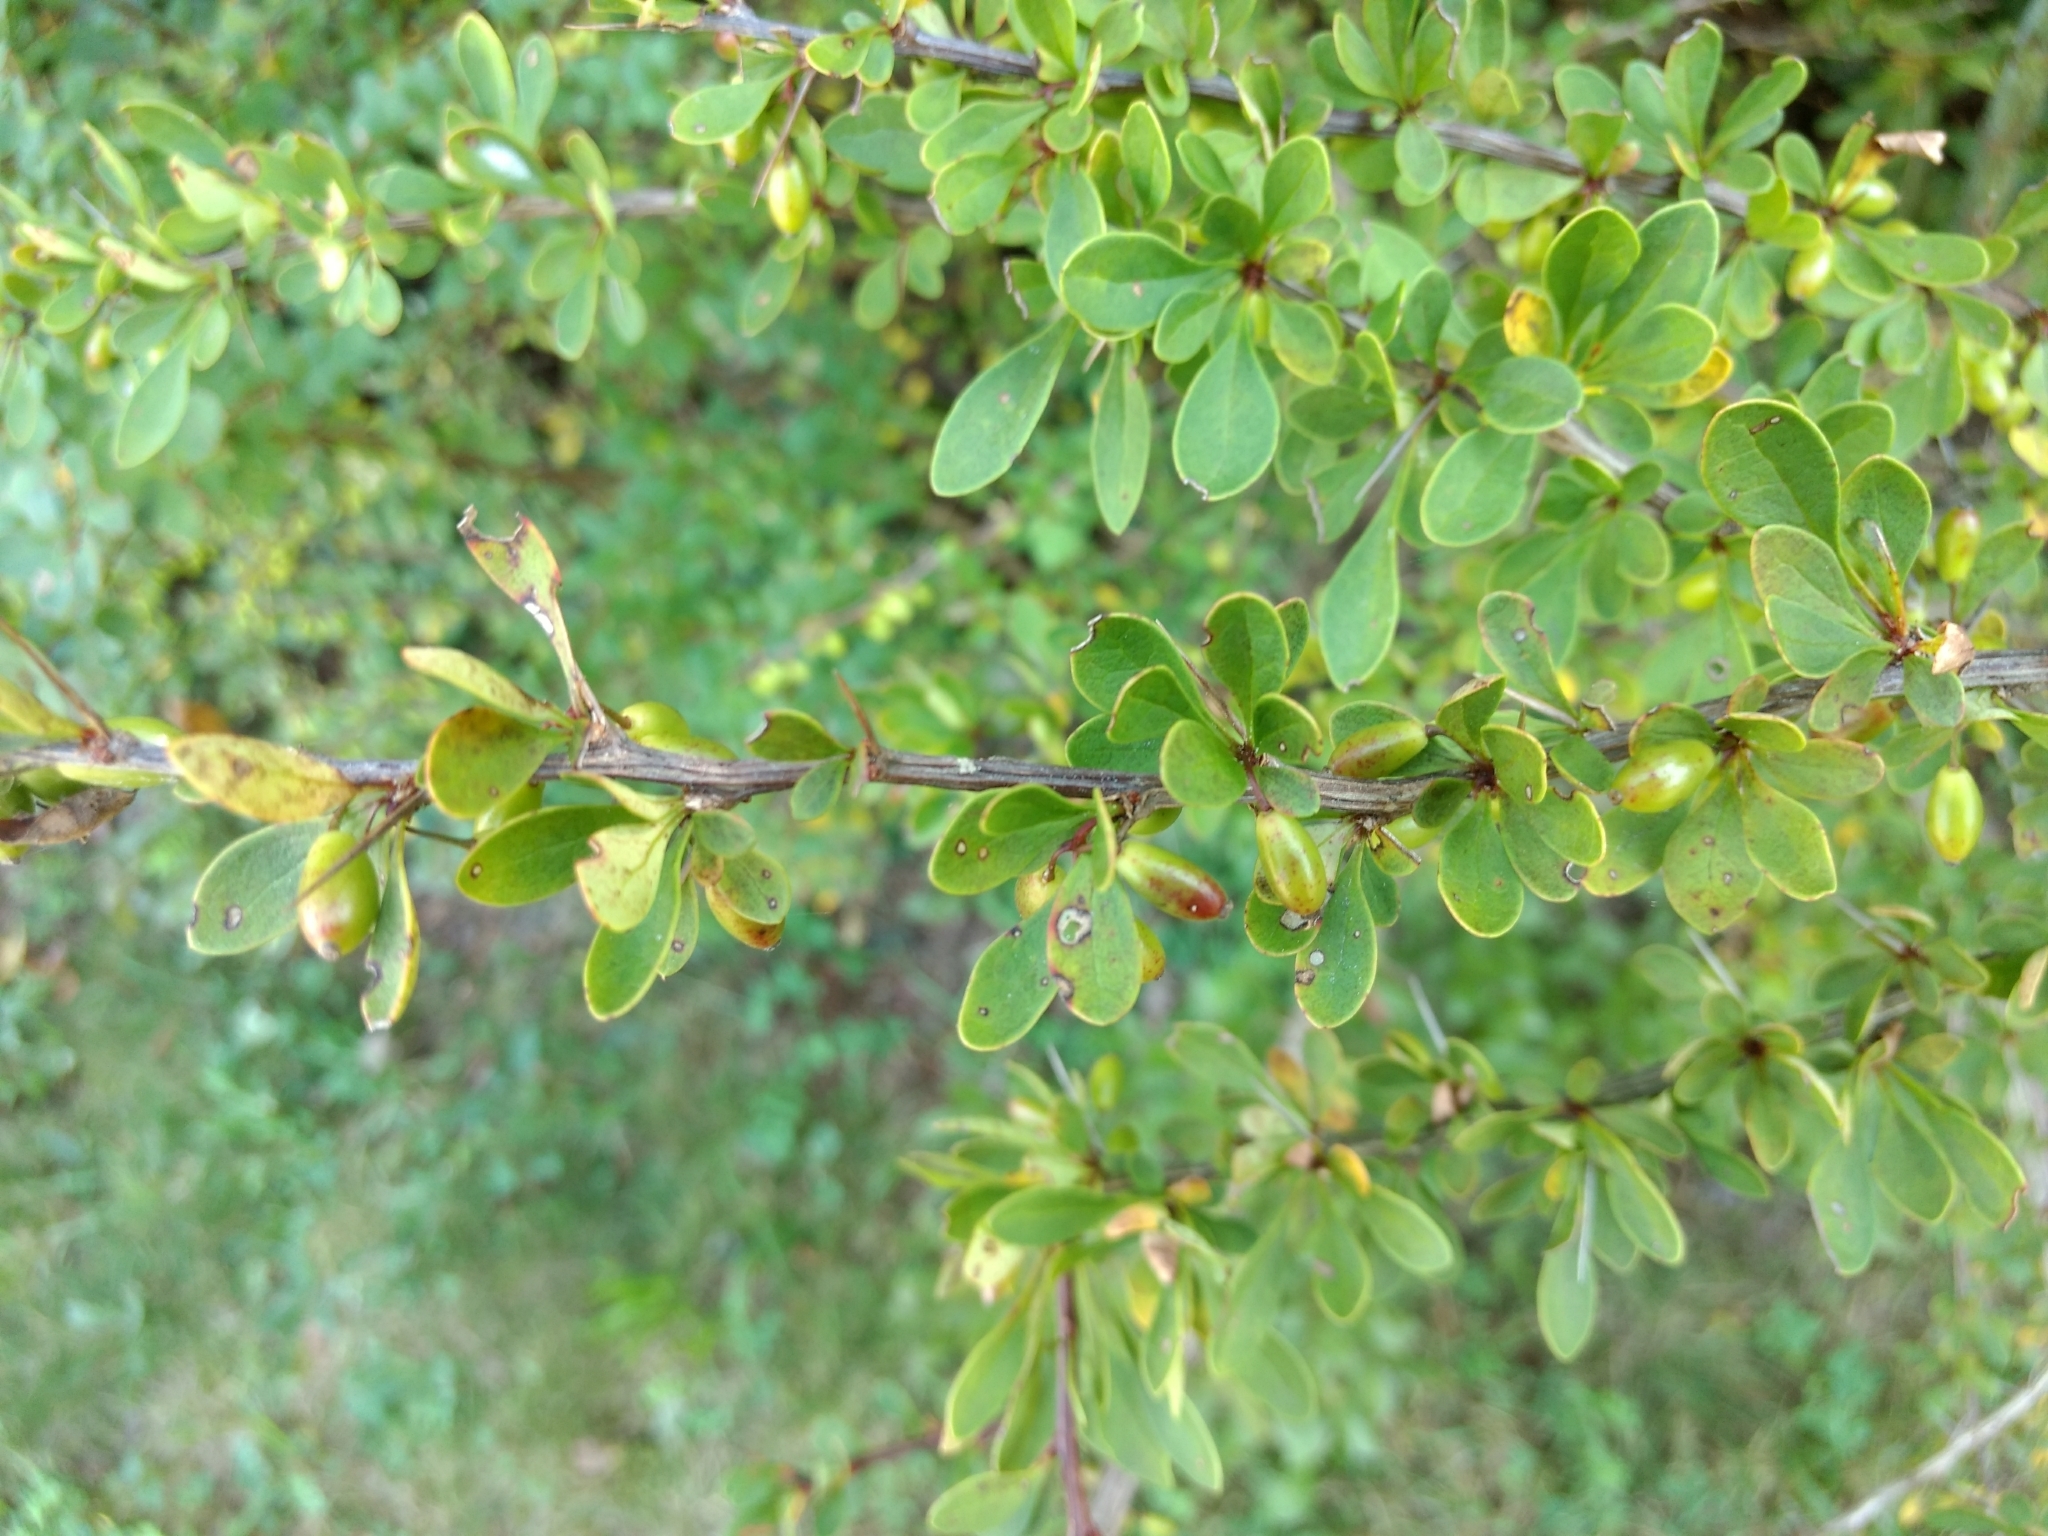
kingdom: Plantae
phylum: Tracheophyta
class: Magnoliopsida
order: Ranunculales
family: Berberidaceae
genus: Berberis
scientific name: Berberis thunbergii
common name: Japanese barberry
